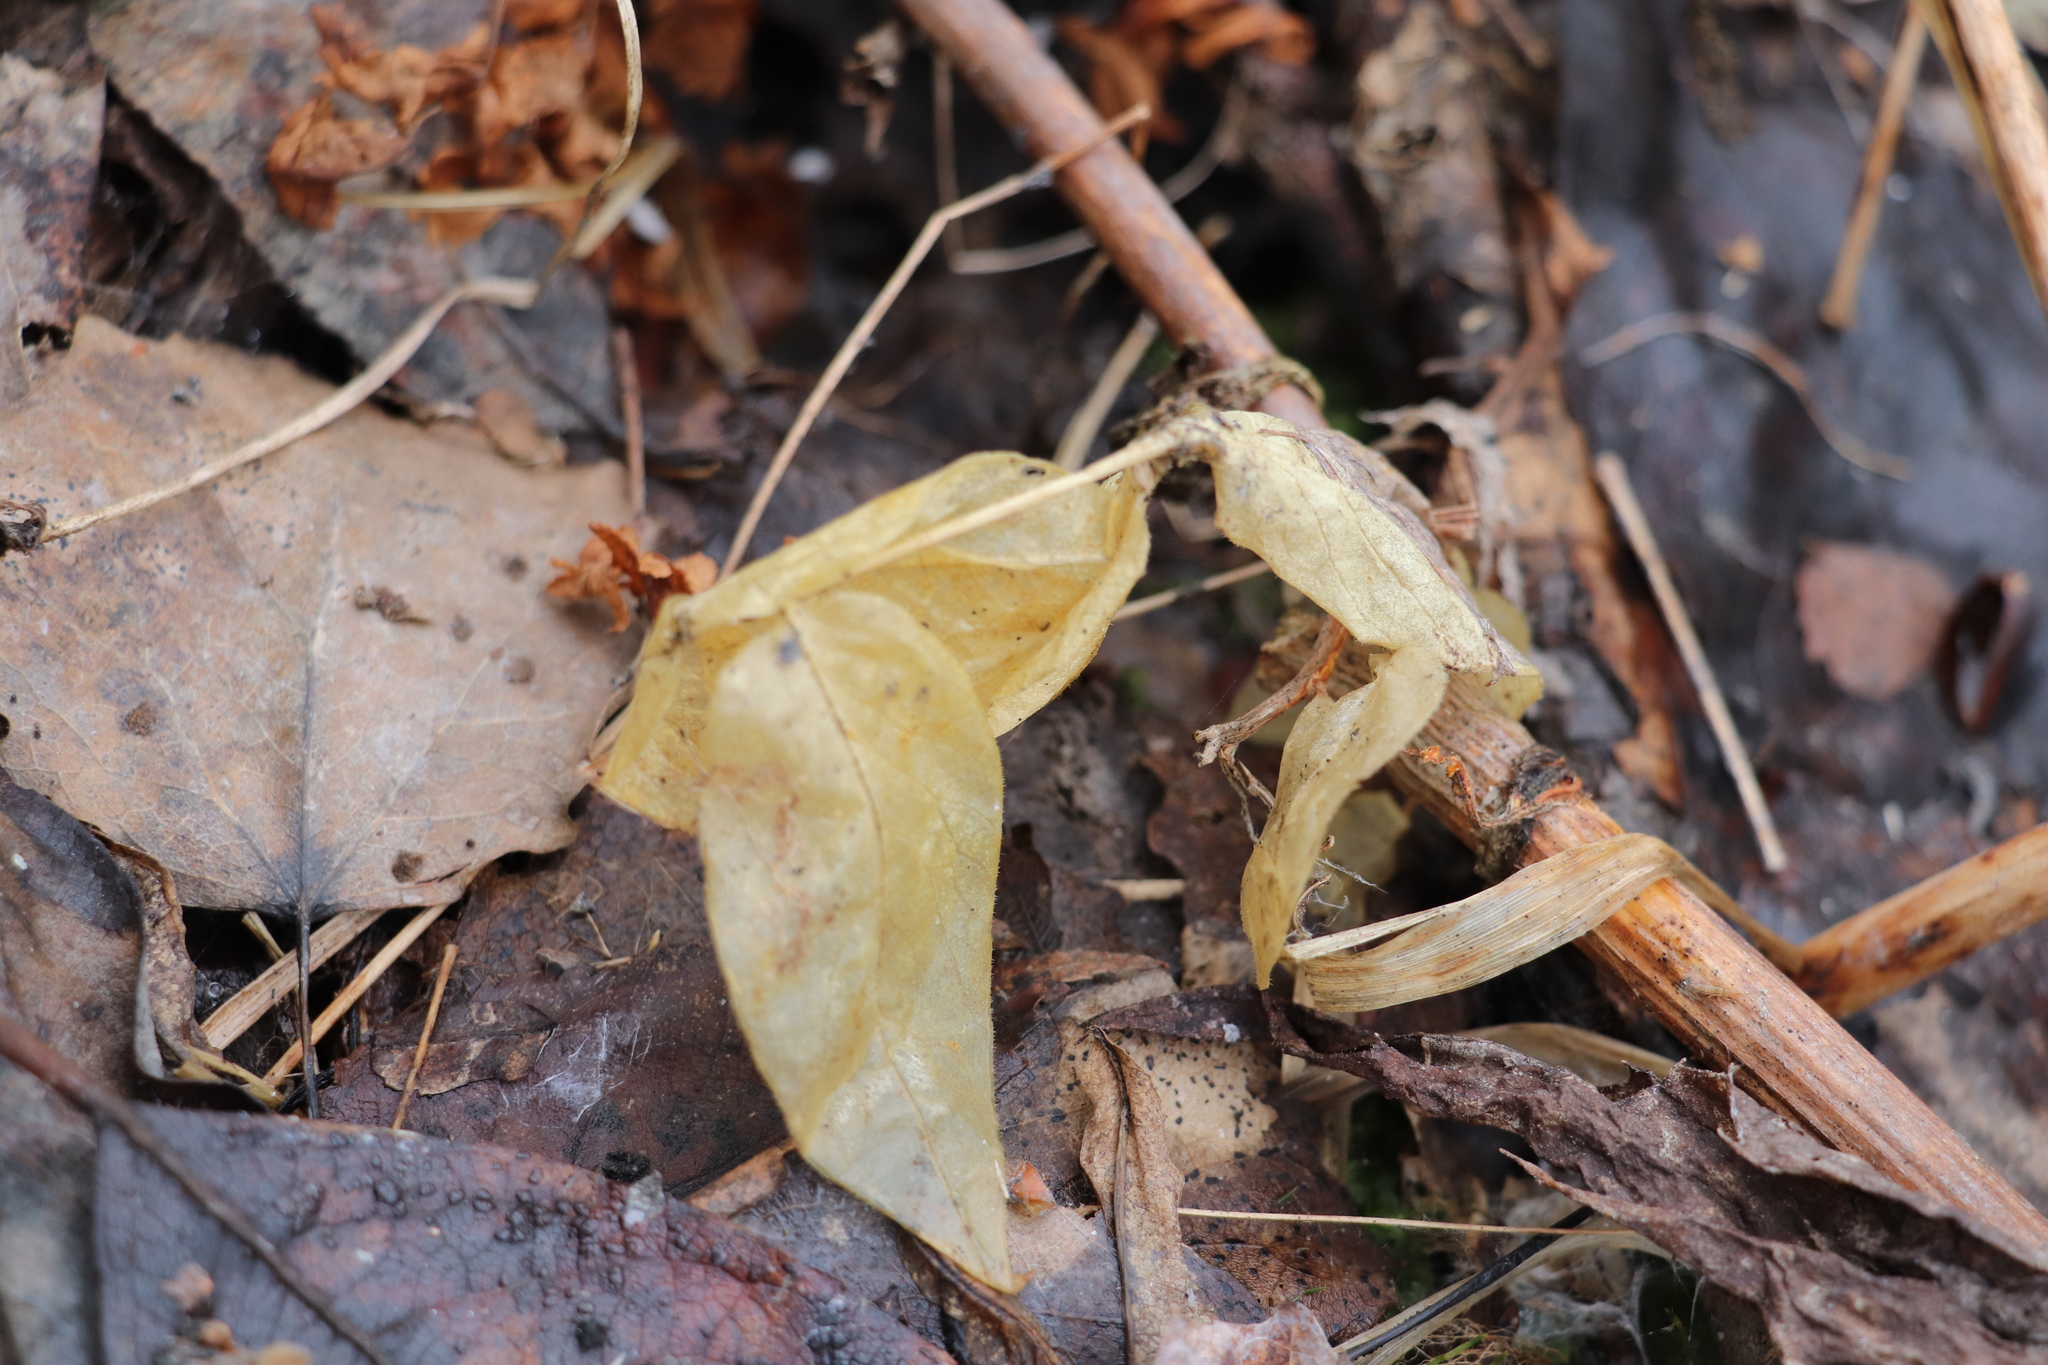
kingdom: Plantae
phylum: Tracheophyta
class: Magnoliopsida
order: Caryophyllales
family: Caryophyllaceae
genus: Stellaria
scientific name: Stellaria bungeana
